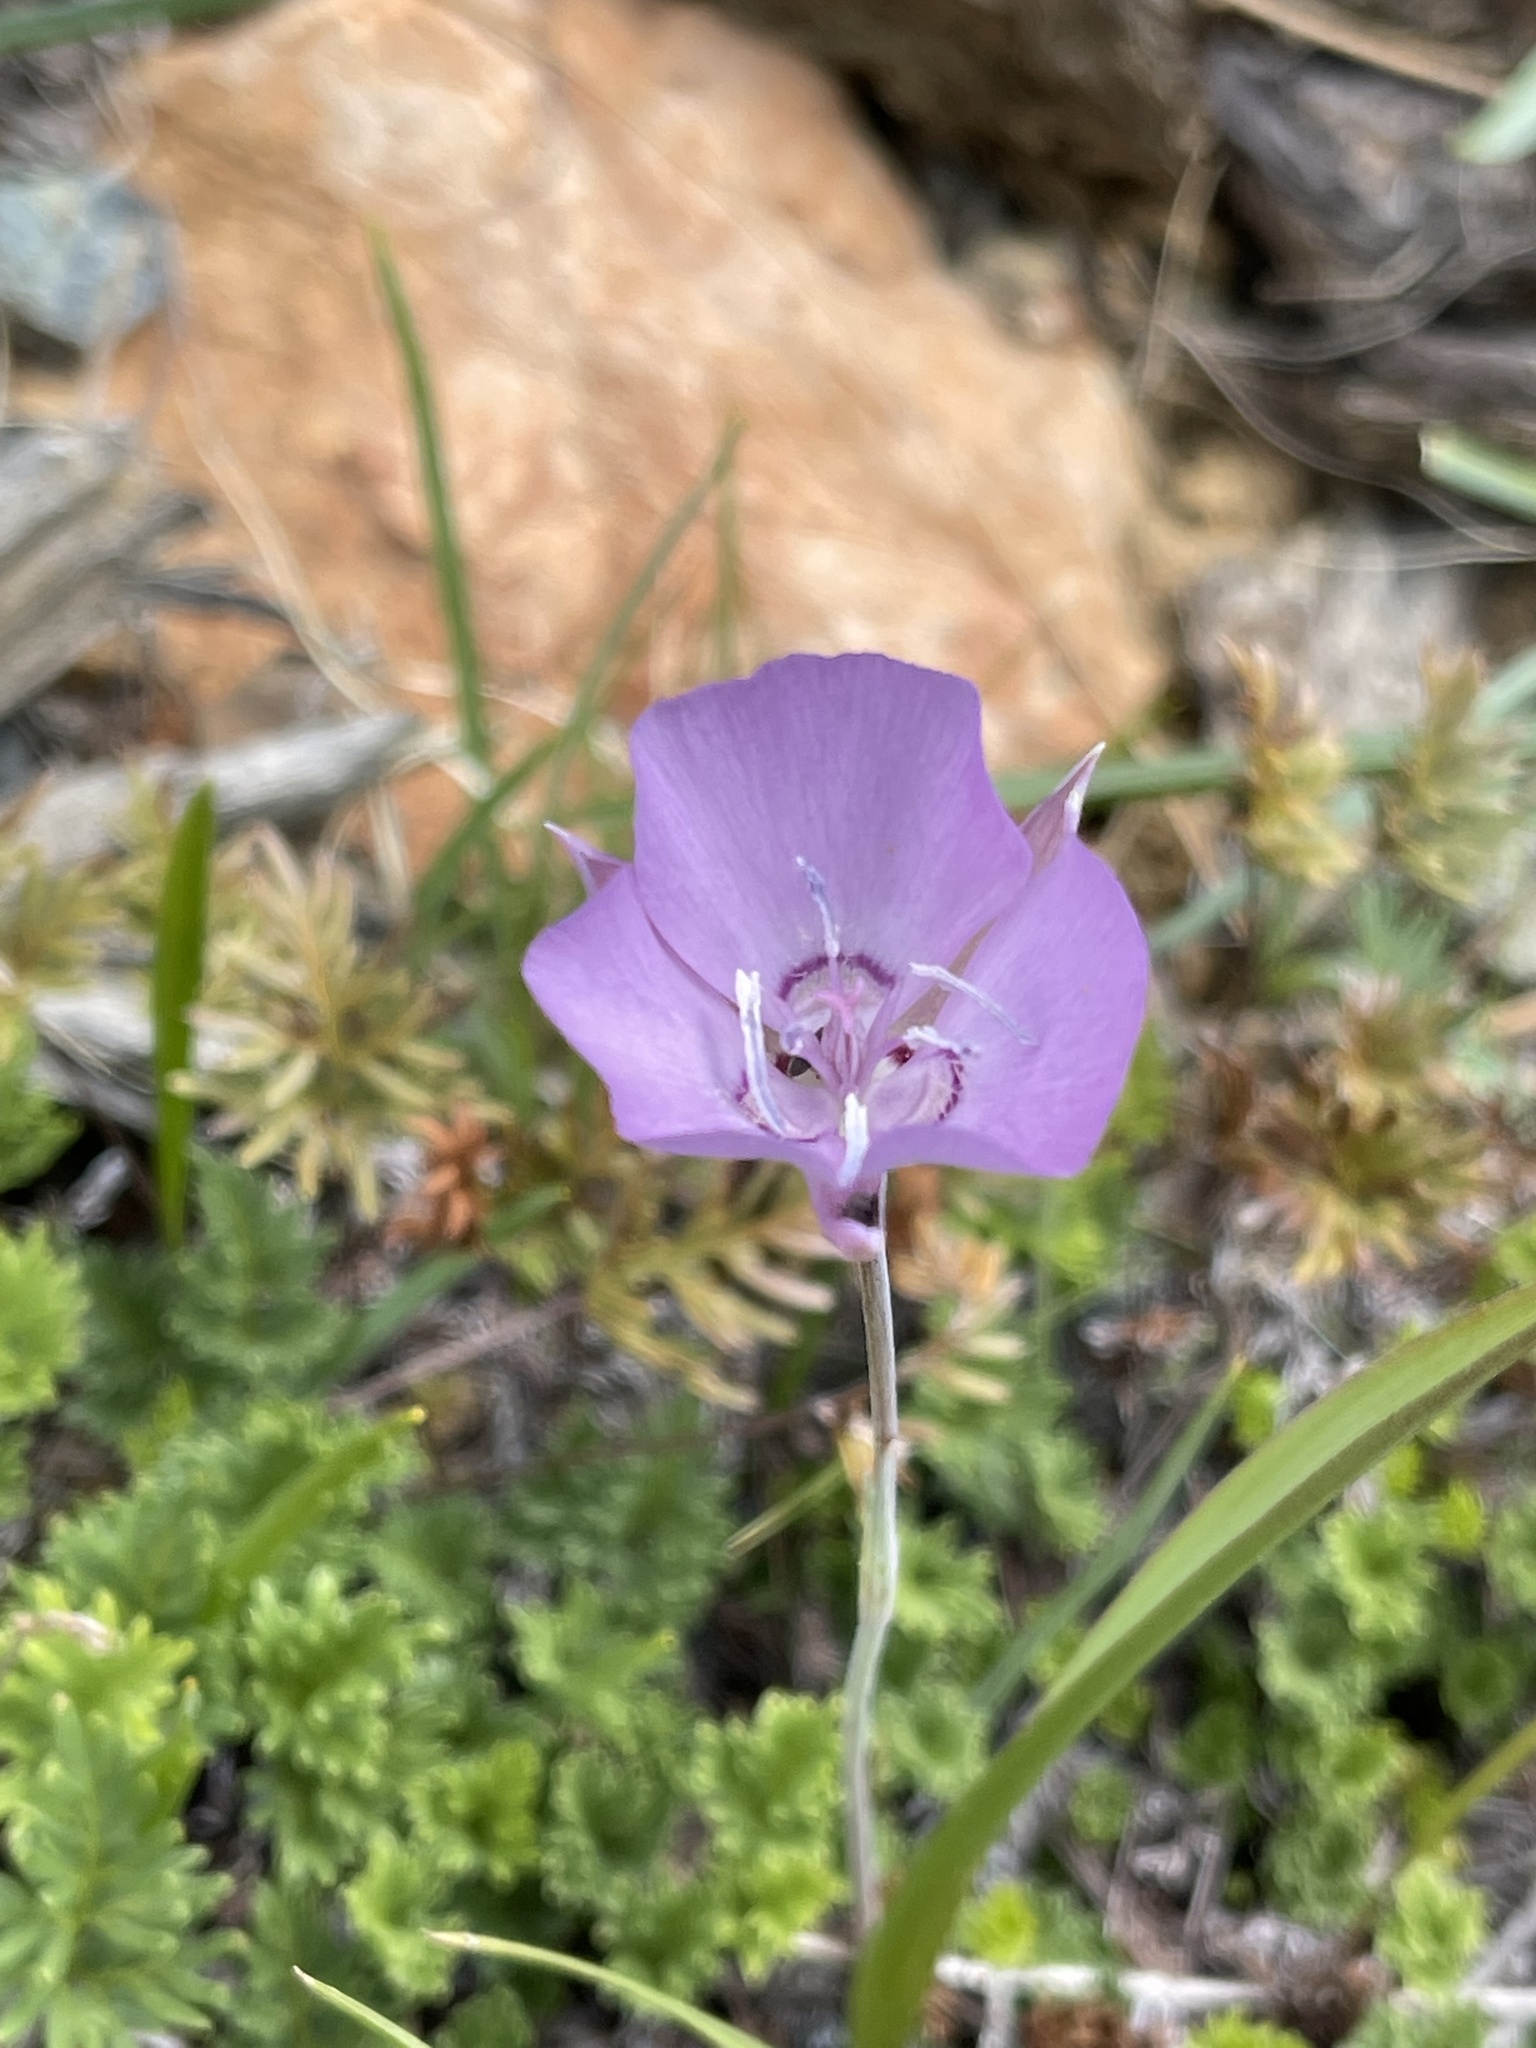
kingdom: Plantae
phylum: Tracheophyta
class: Liliopsida
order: Liliales
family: Liliaceae
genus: Calochortus
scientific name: Calochortus nudus
